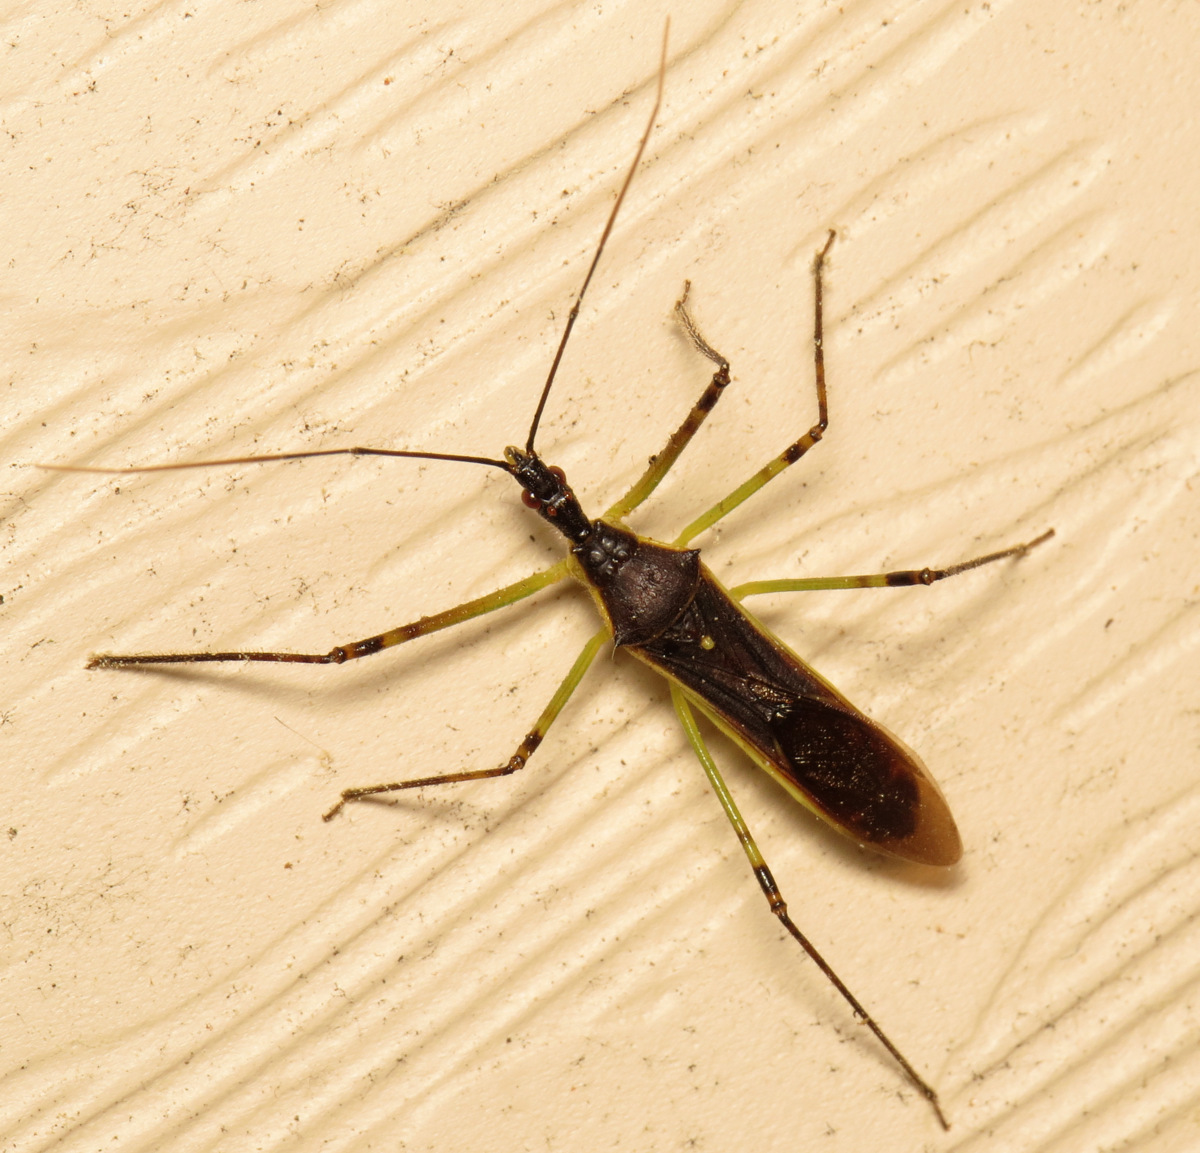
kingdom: Animalia
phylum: Arthropoda
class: Insecta
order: Hemiptera
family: Reduviidae
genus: Zelus
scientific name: Zelus luridus
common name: Pale green assassin bug
